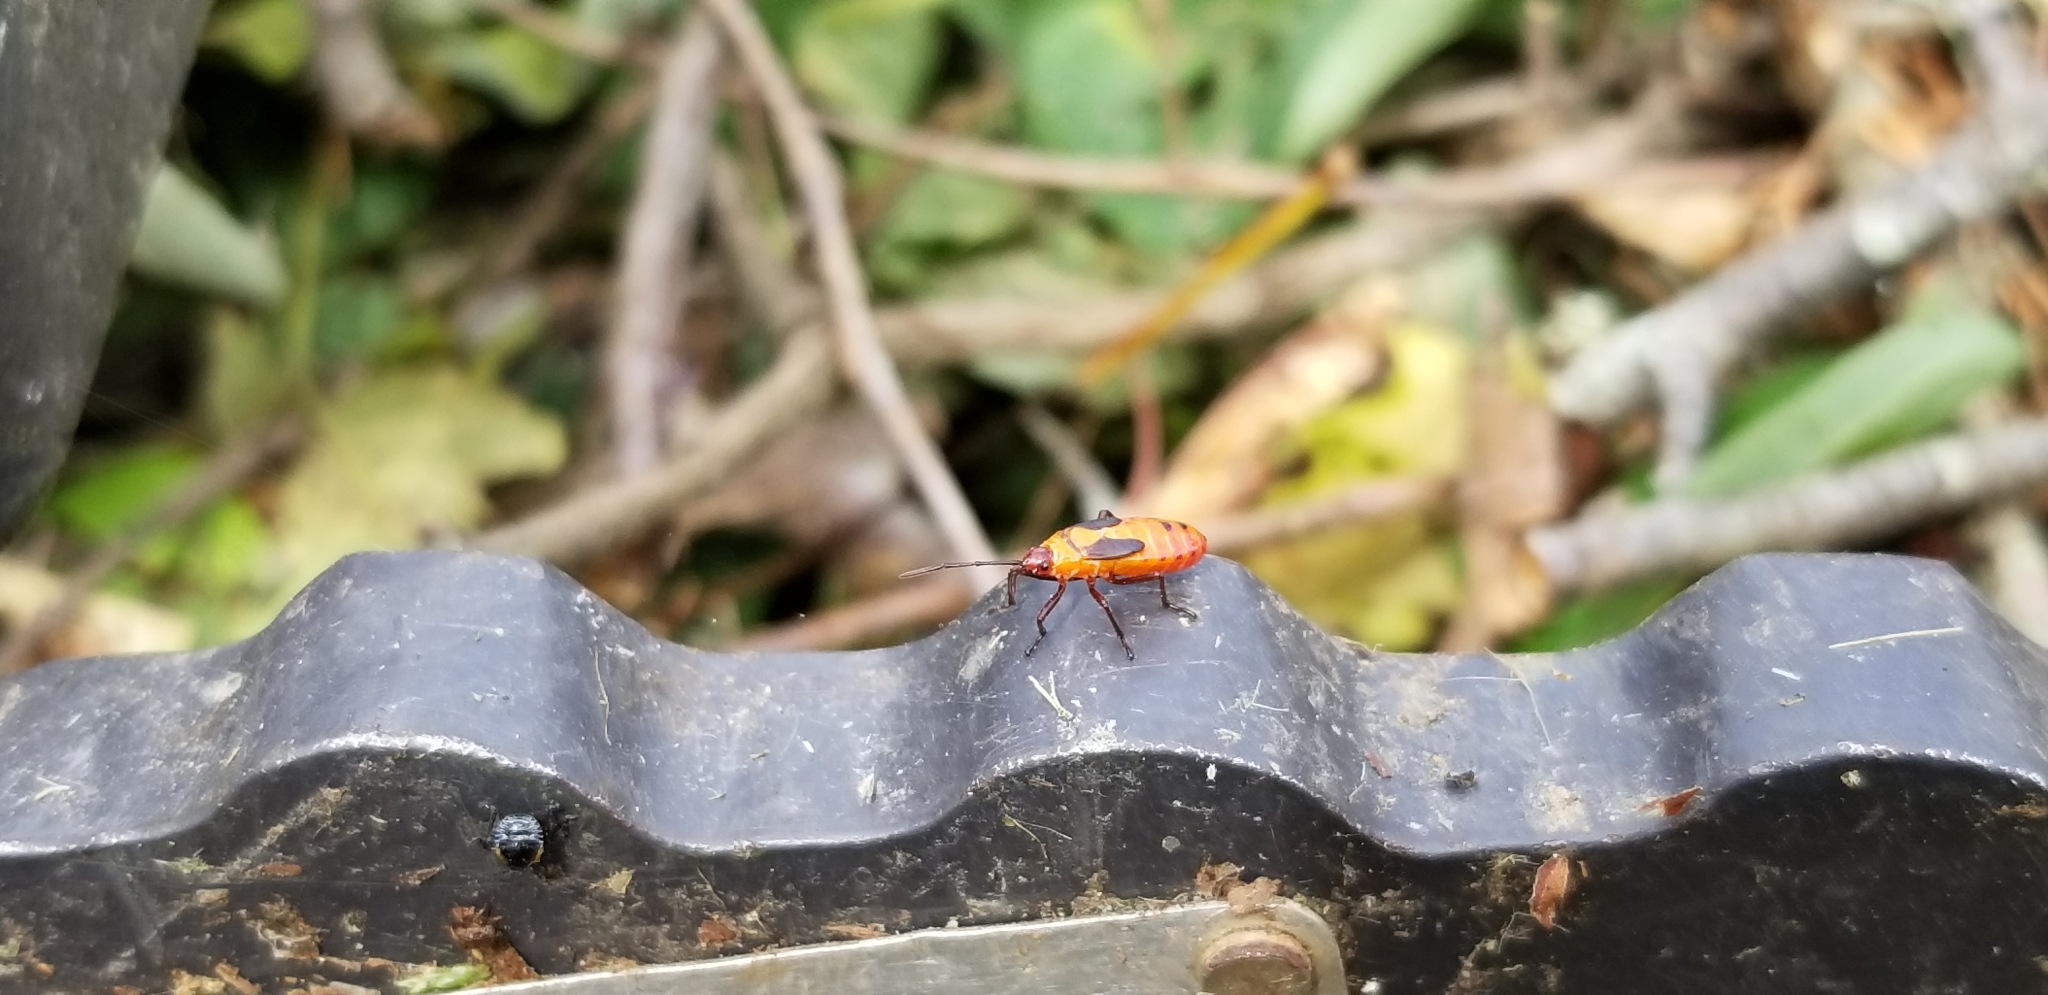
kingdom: Animalia
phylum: Arthropoda
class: Insecta
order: Hemiptera
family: Lygaeidae
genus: Oncopeltus
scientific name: Oncopeltus fasciatus
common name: Large milkweed bug
